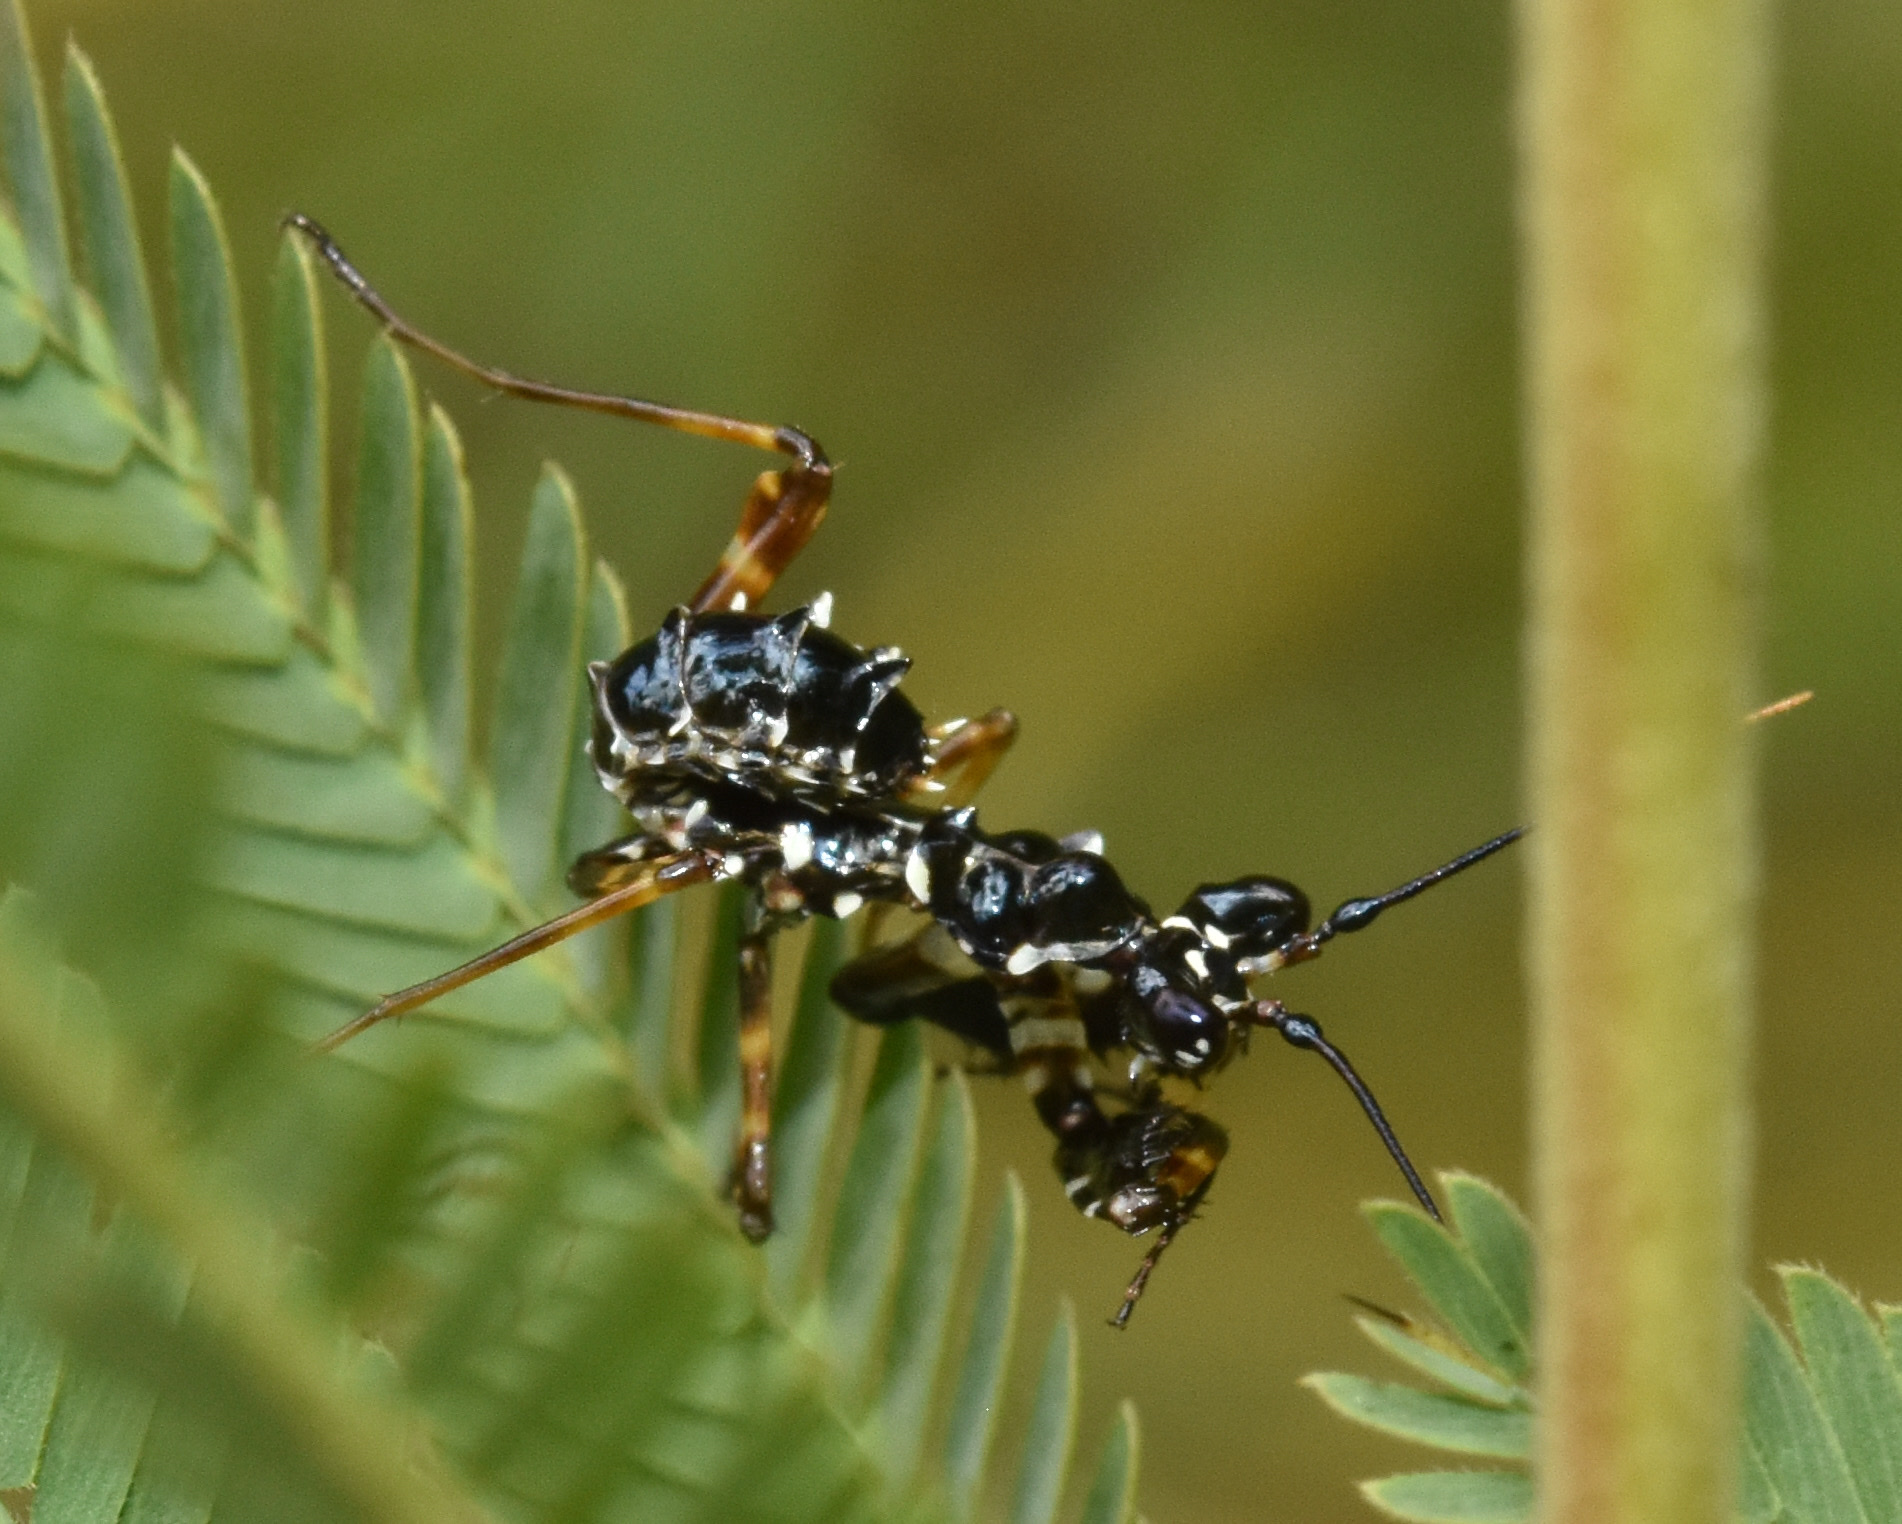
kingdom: Animalia
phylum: Arthropoda
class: Insecta
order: Mantodea
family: Hymenopodidae
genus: Pseudocreobotra
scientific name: Pseudocreobotra wahlbergi
